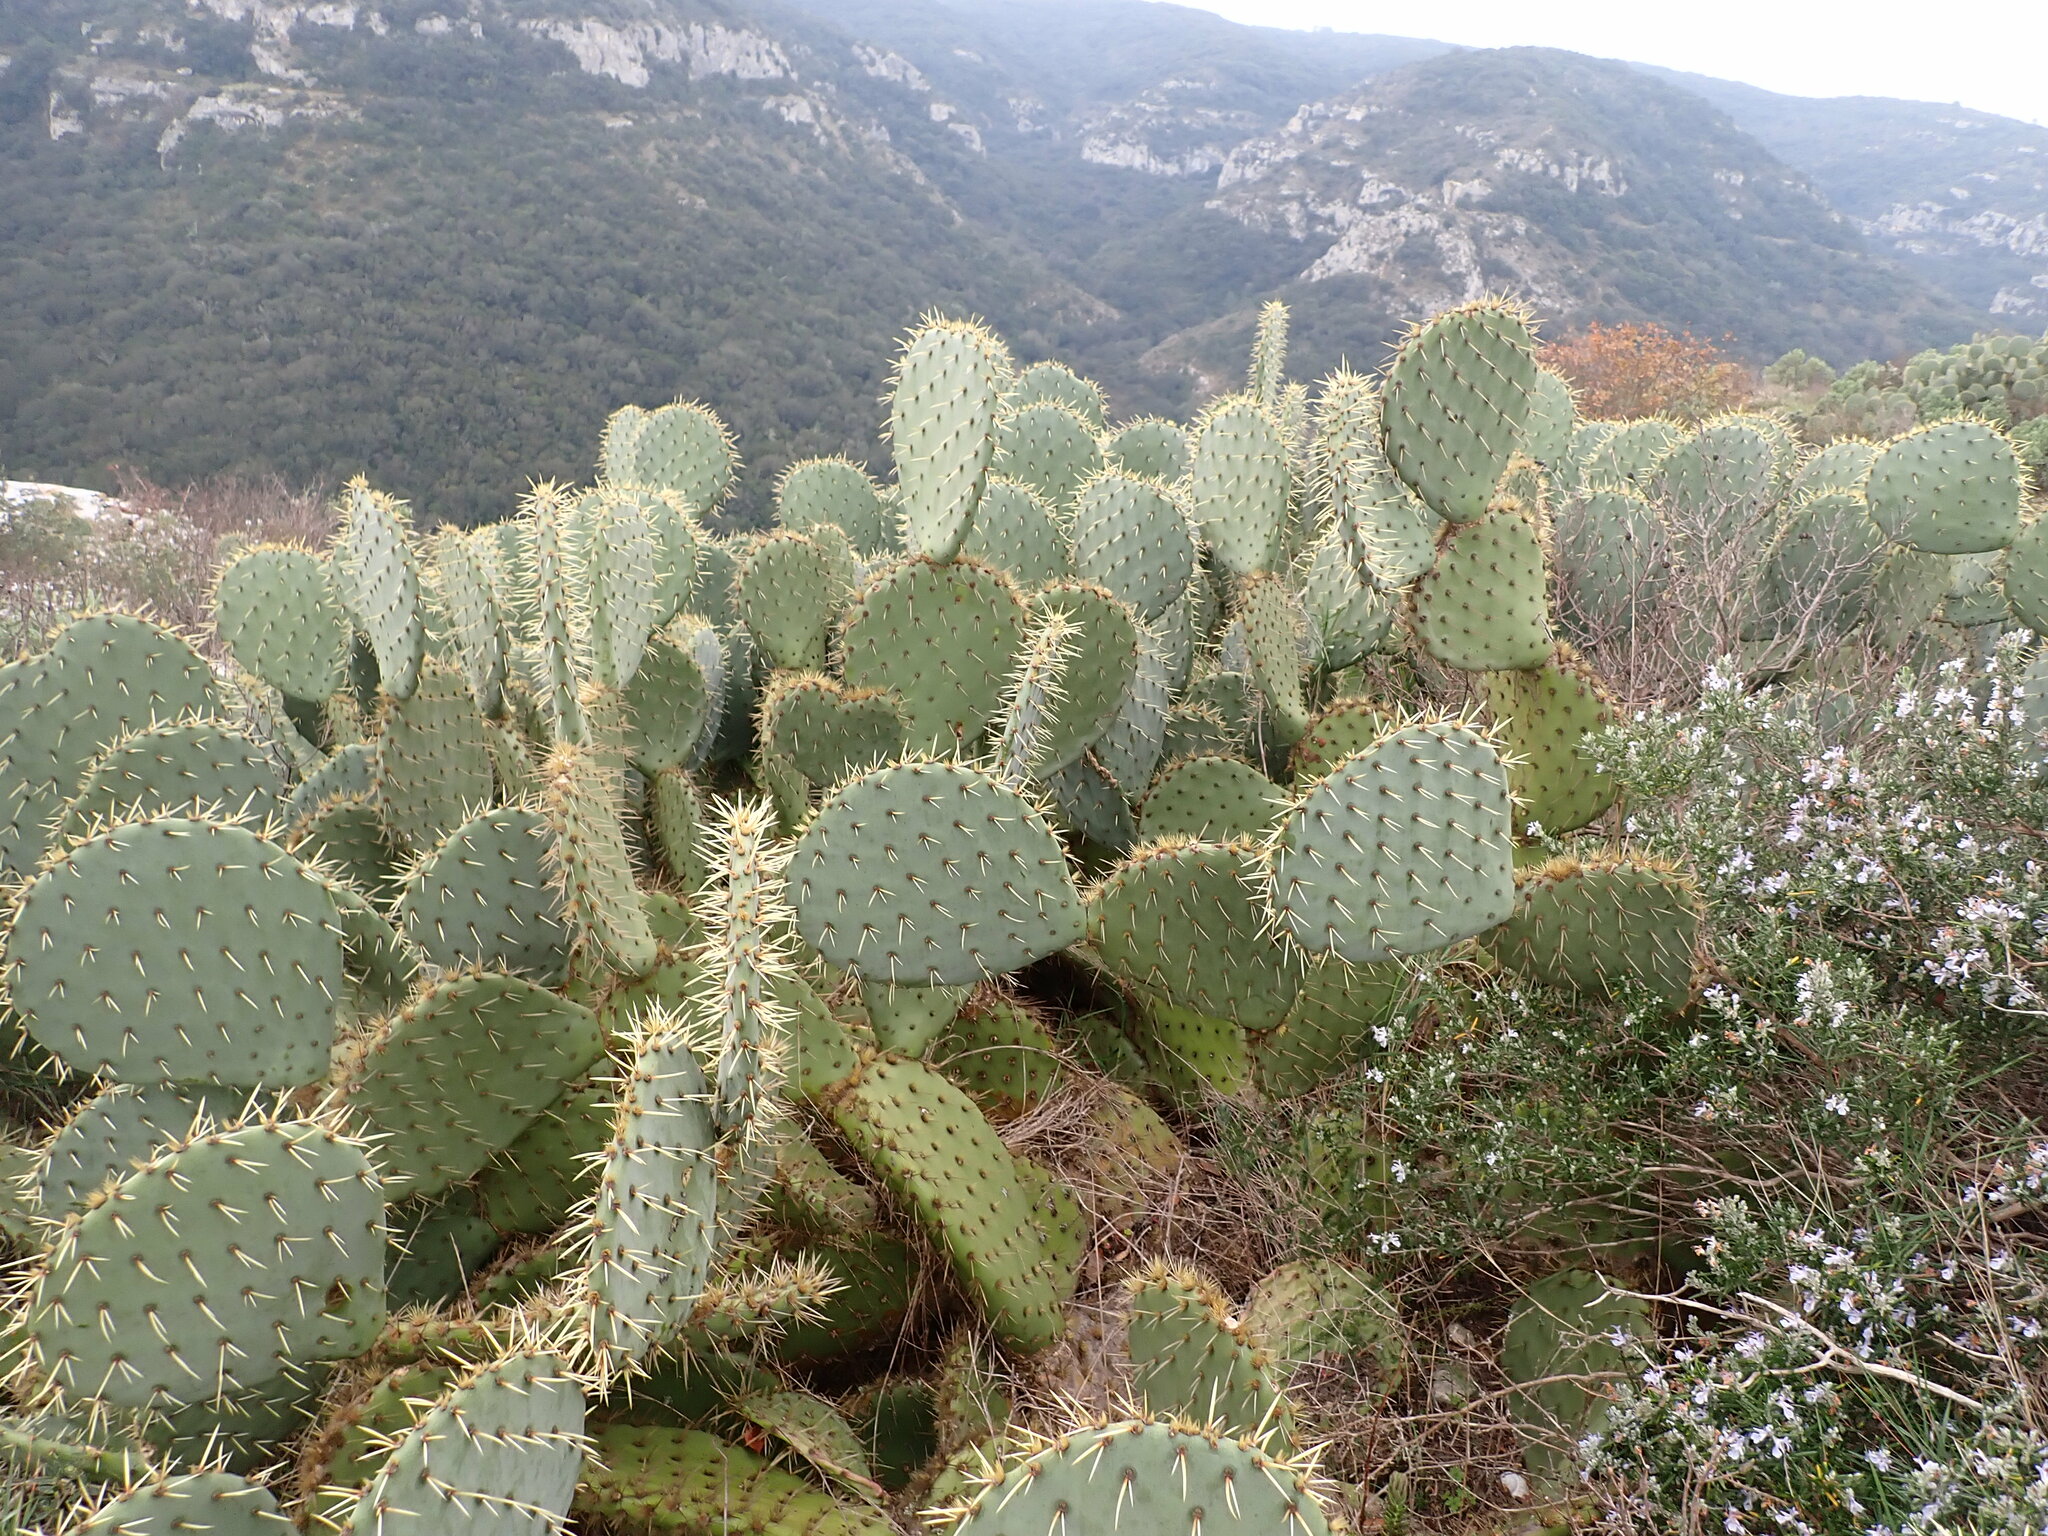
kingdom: Plantae
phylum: Tracheophyta
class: Magnoliopsida
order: Caryophyllales
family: Cactaceae
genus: Opuntia
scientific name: Opuntia orbiculata
